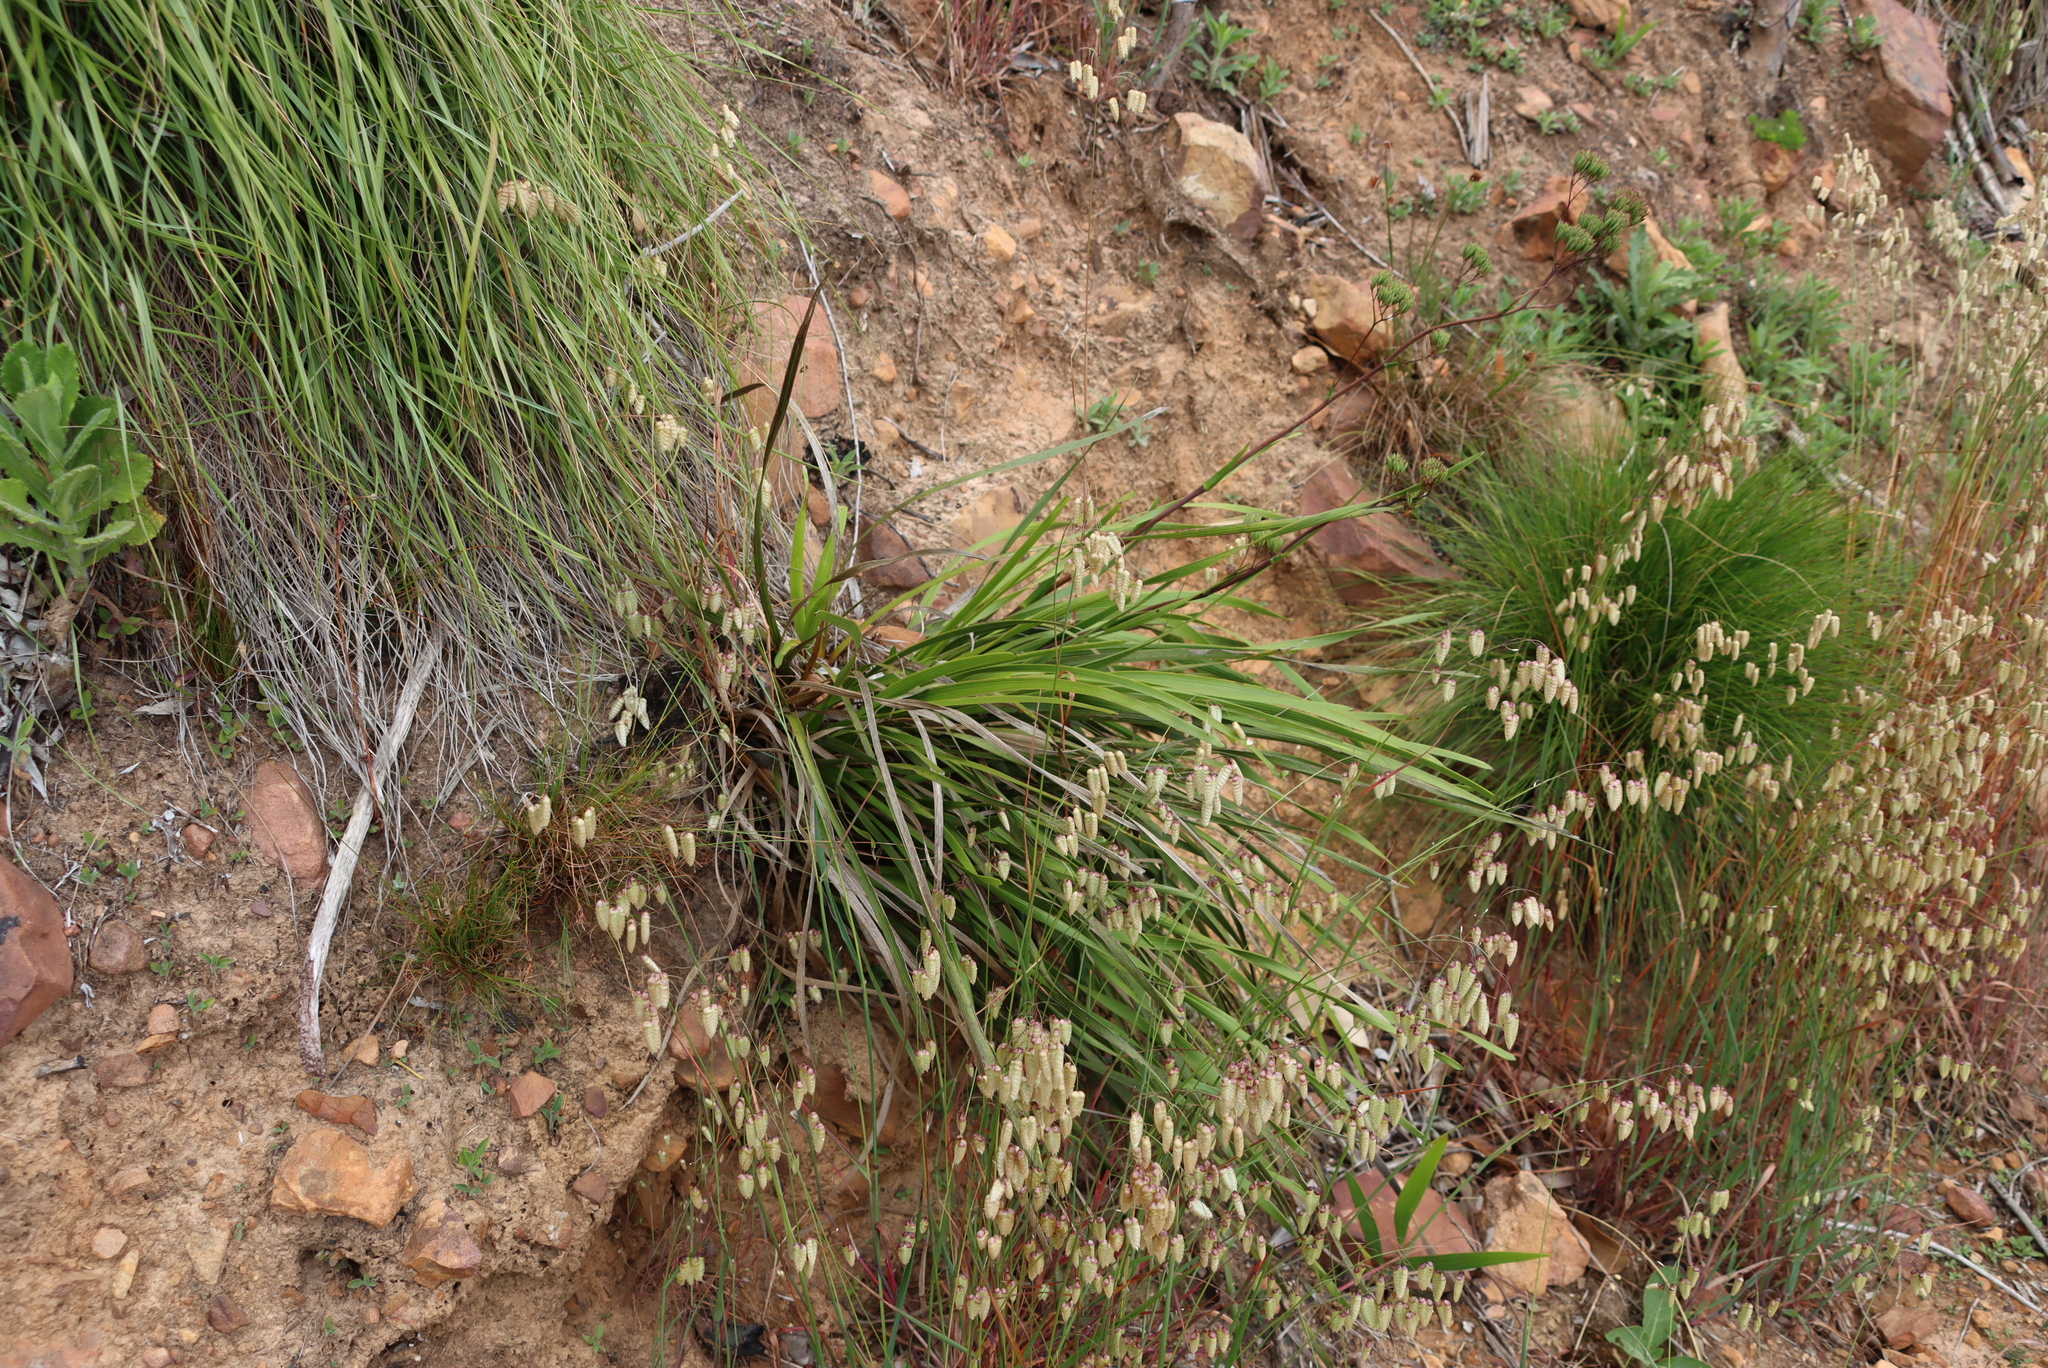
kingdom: Plantae
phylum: Tracheophyta
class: Liliopsida
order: Poales
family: Poaceae
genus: Briza
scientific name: Briza maxima
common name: Big quakinggrass
